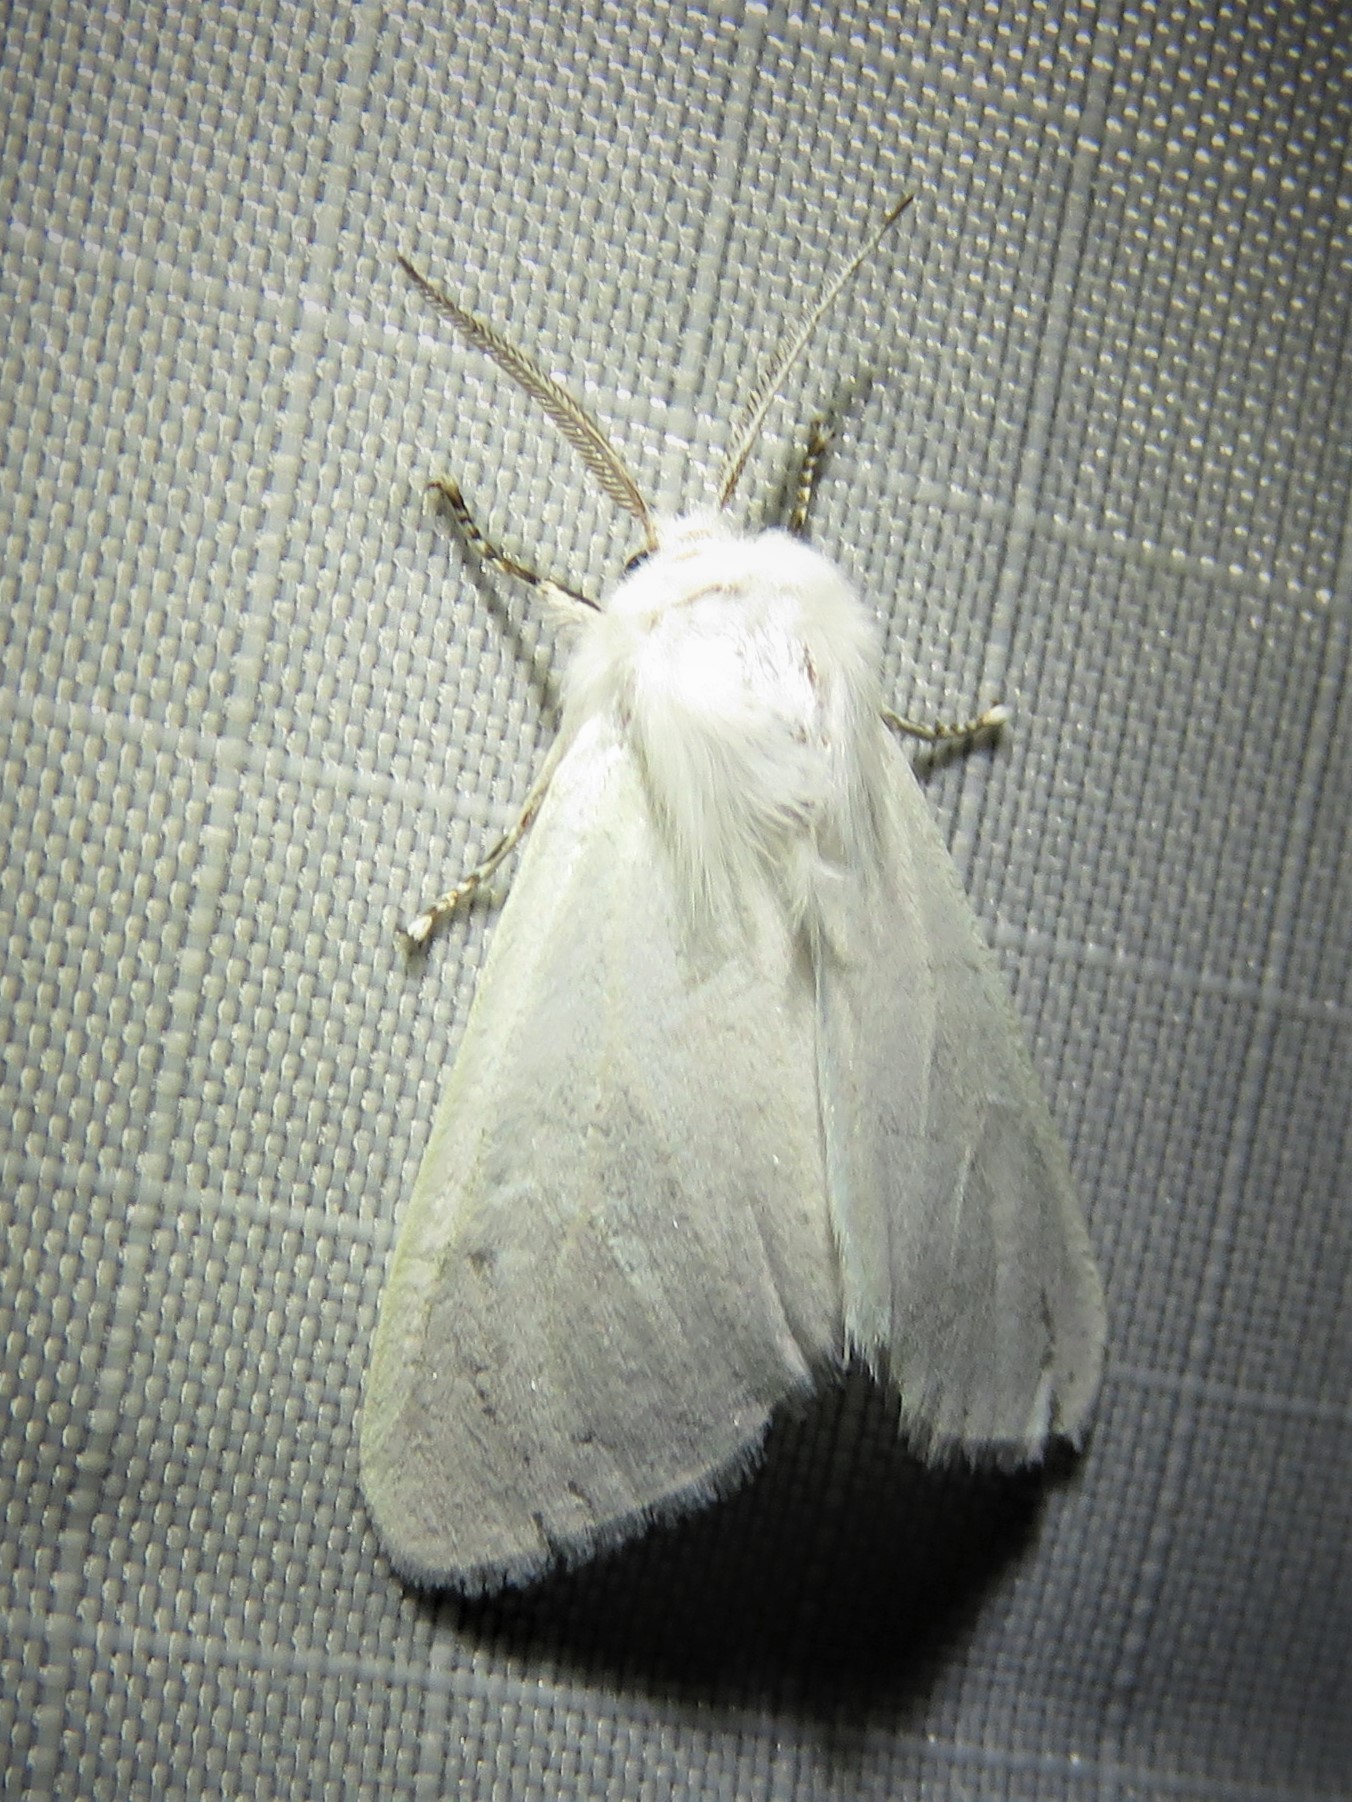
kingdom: Animalia
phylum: Arthropoda
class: Insecta
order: Lepidoptera
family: Erebidae
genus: Hyphantria
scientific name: Hyphantria cunea
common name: American white moth
